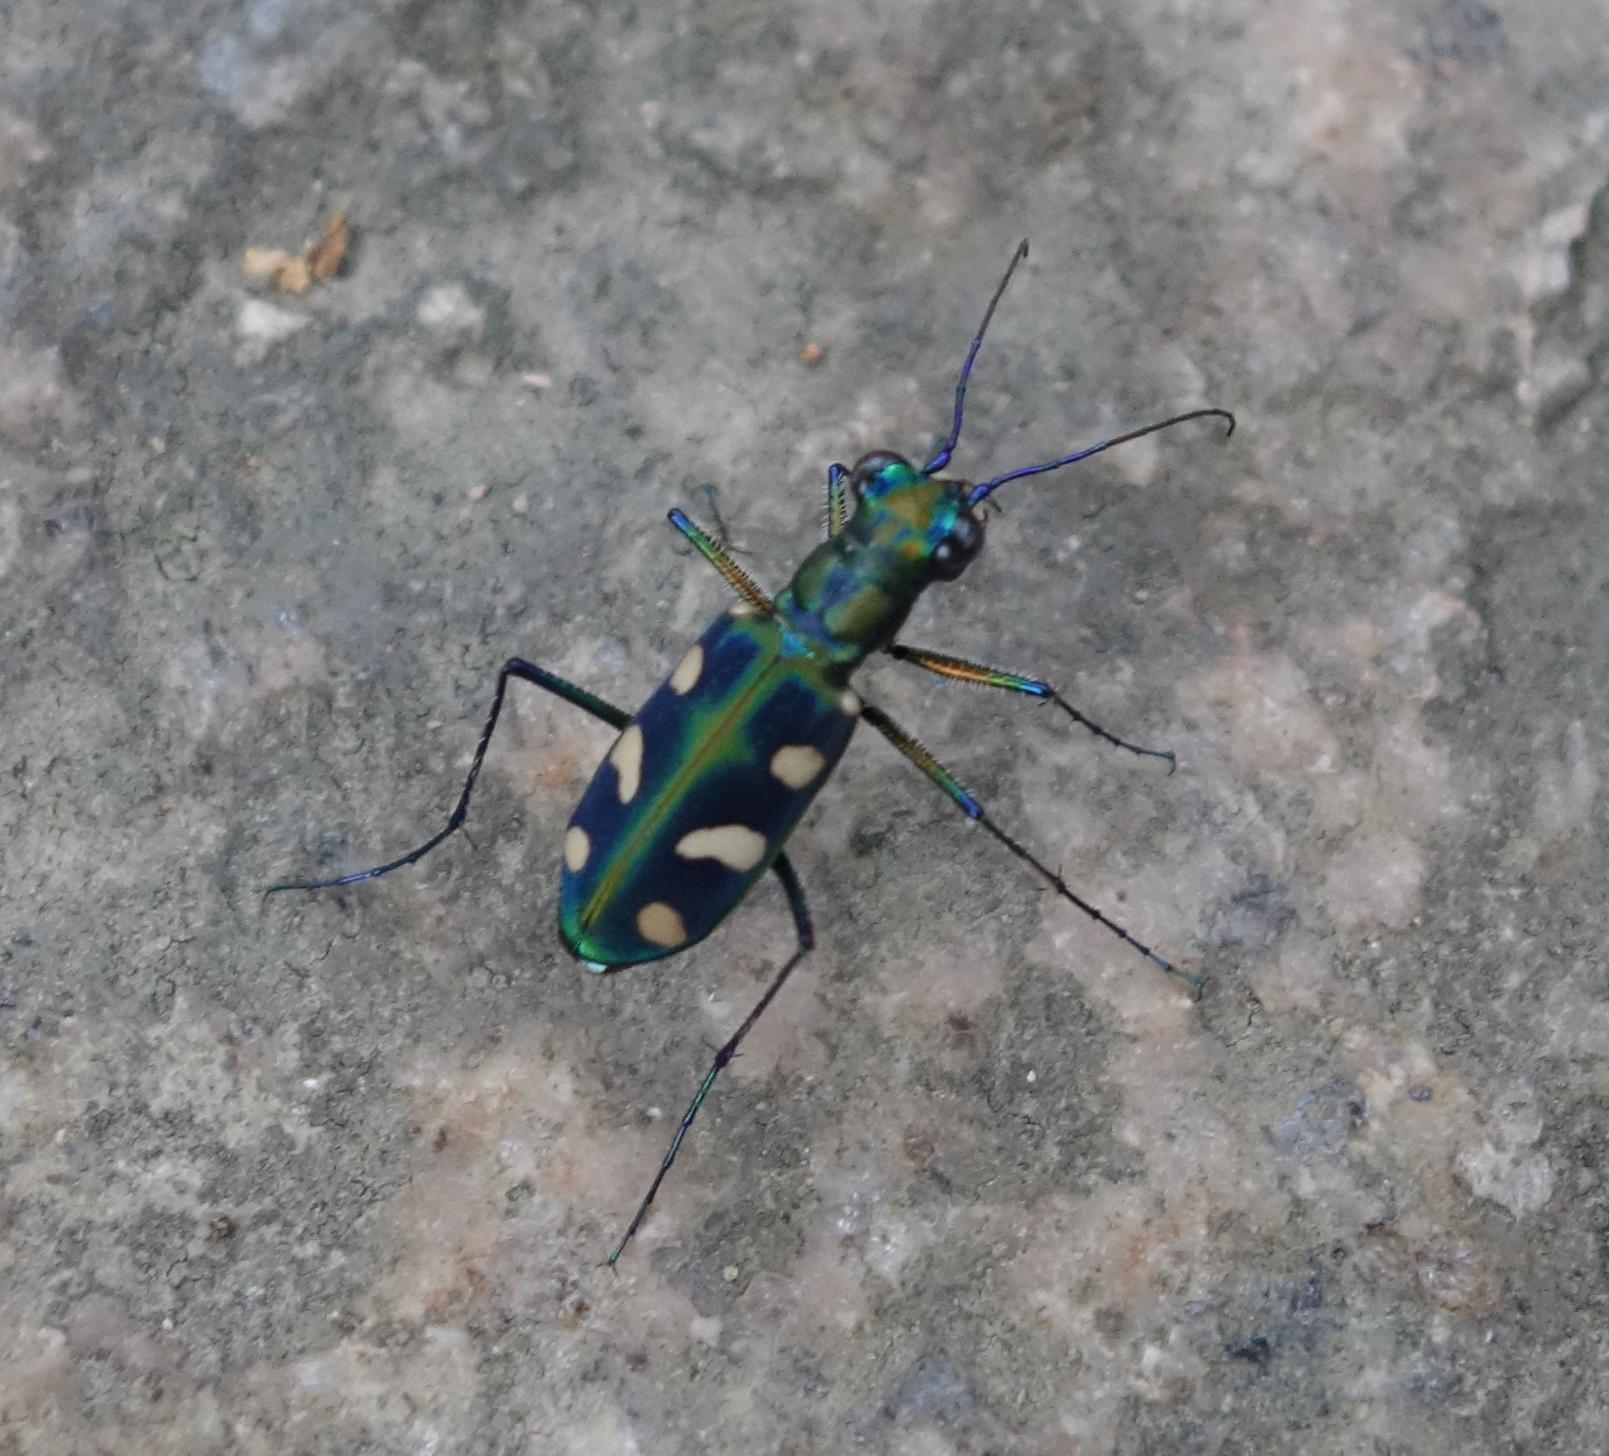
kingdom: Animalia
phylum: Arthropoda
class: Insecta
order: Coleoptera
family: Carabidae
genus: Cicindela
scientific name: Cicindela batesi
